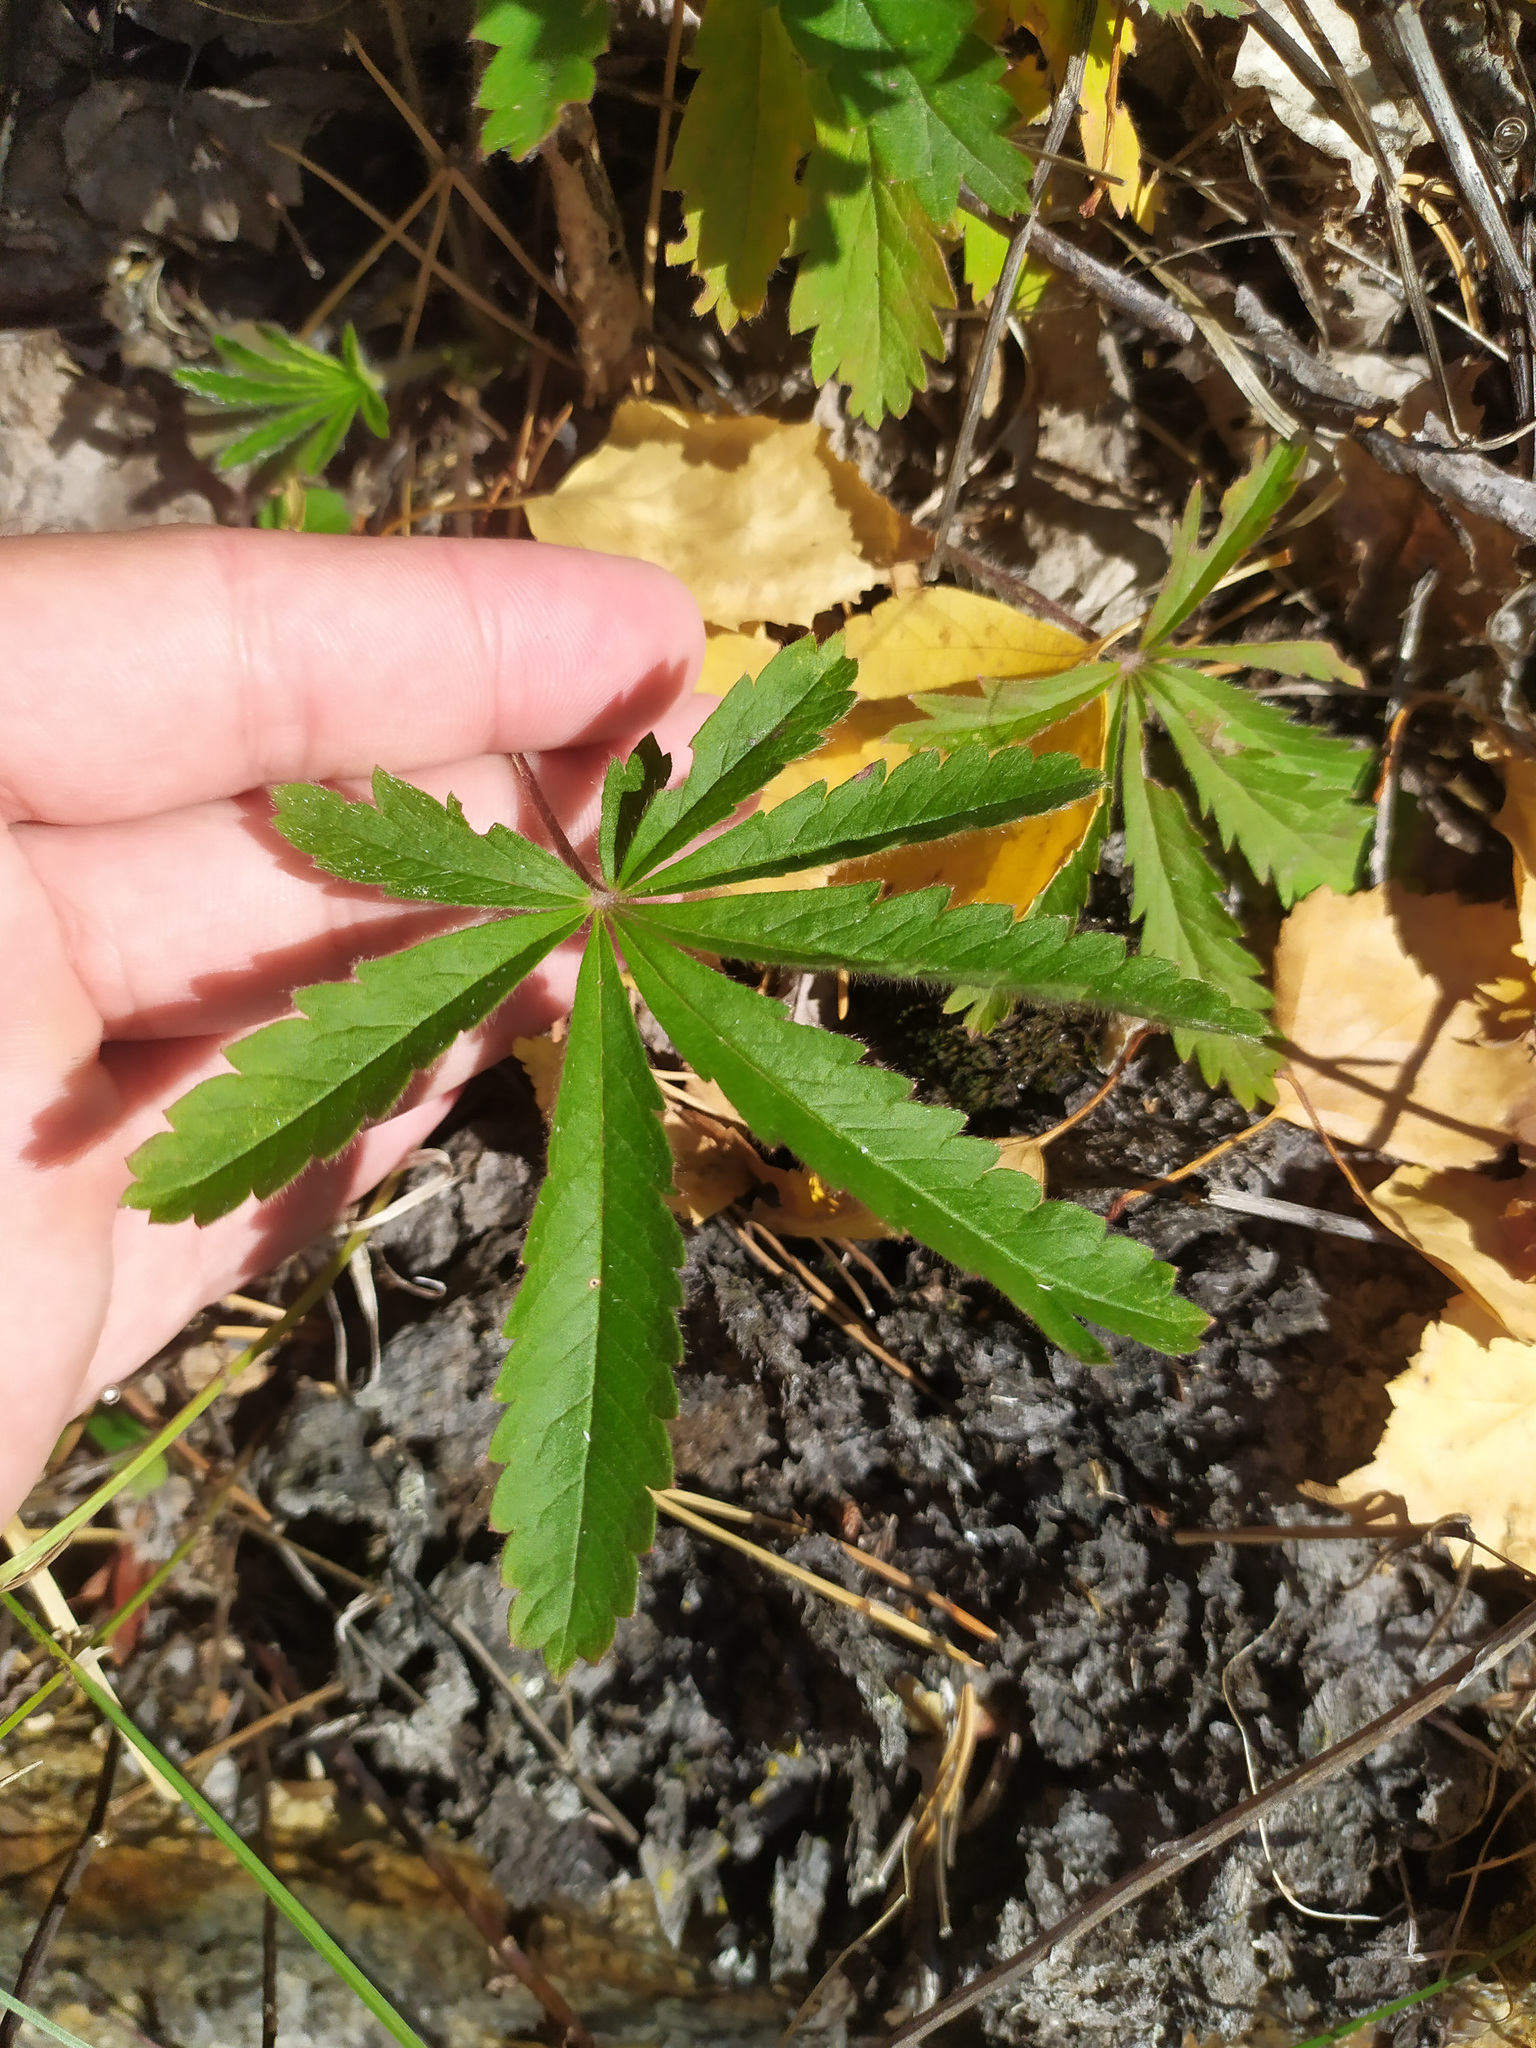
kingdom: Plantae
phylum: Tracheophyta
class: Magnoliopsida
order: Rosales
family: Rosaceae
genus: Potentilla
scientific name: Potentilla humifusa
